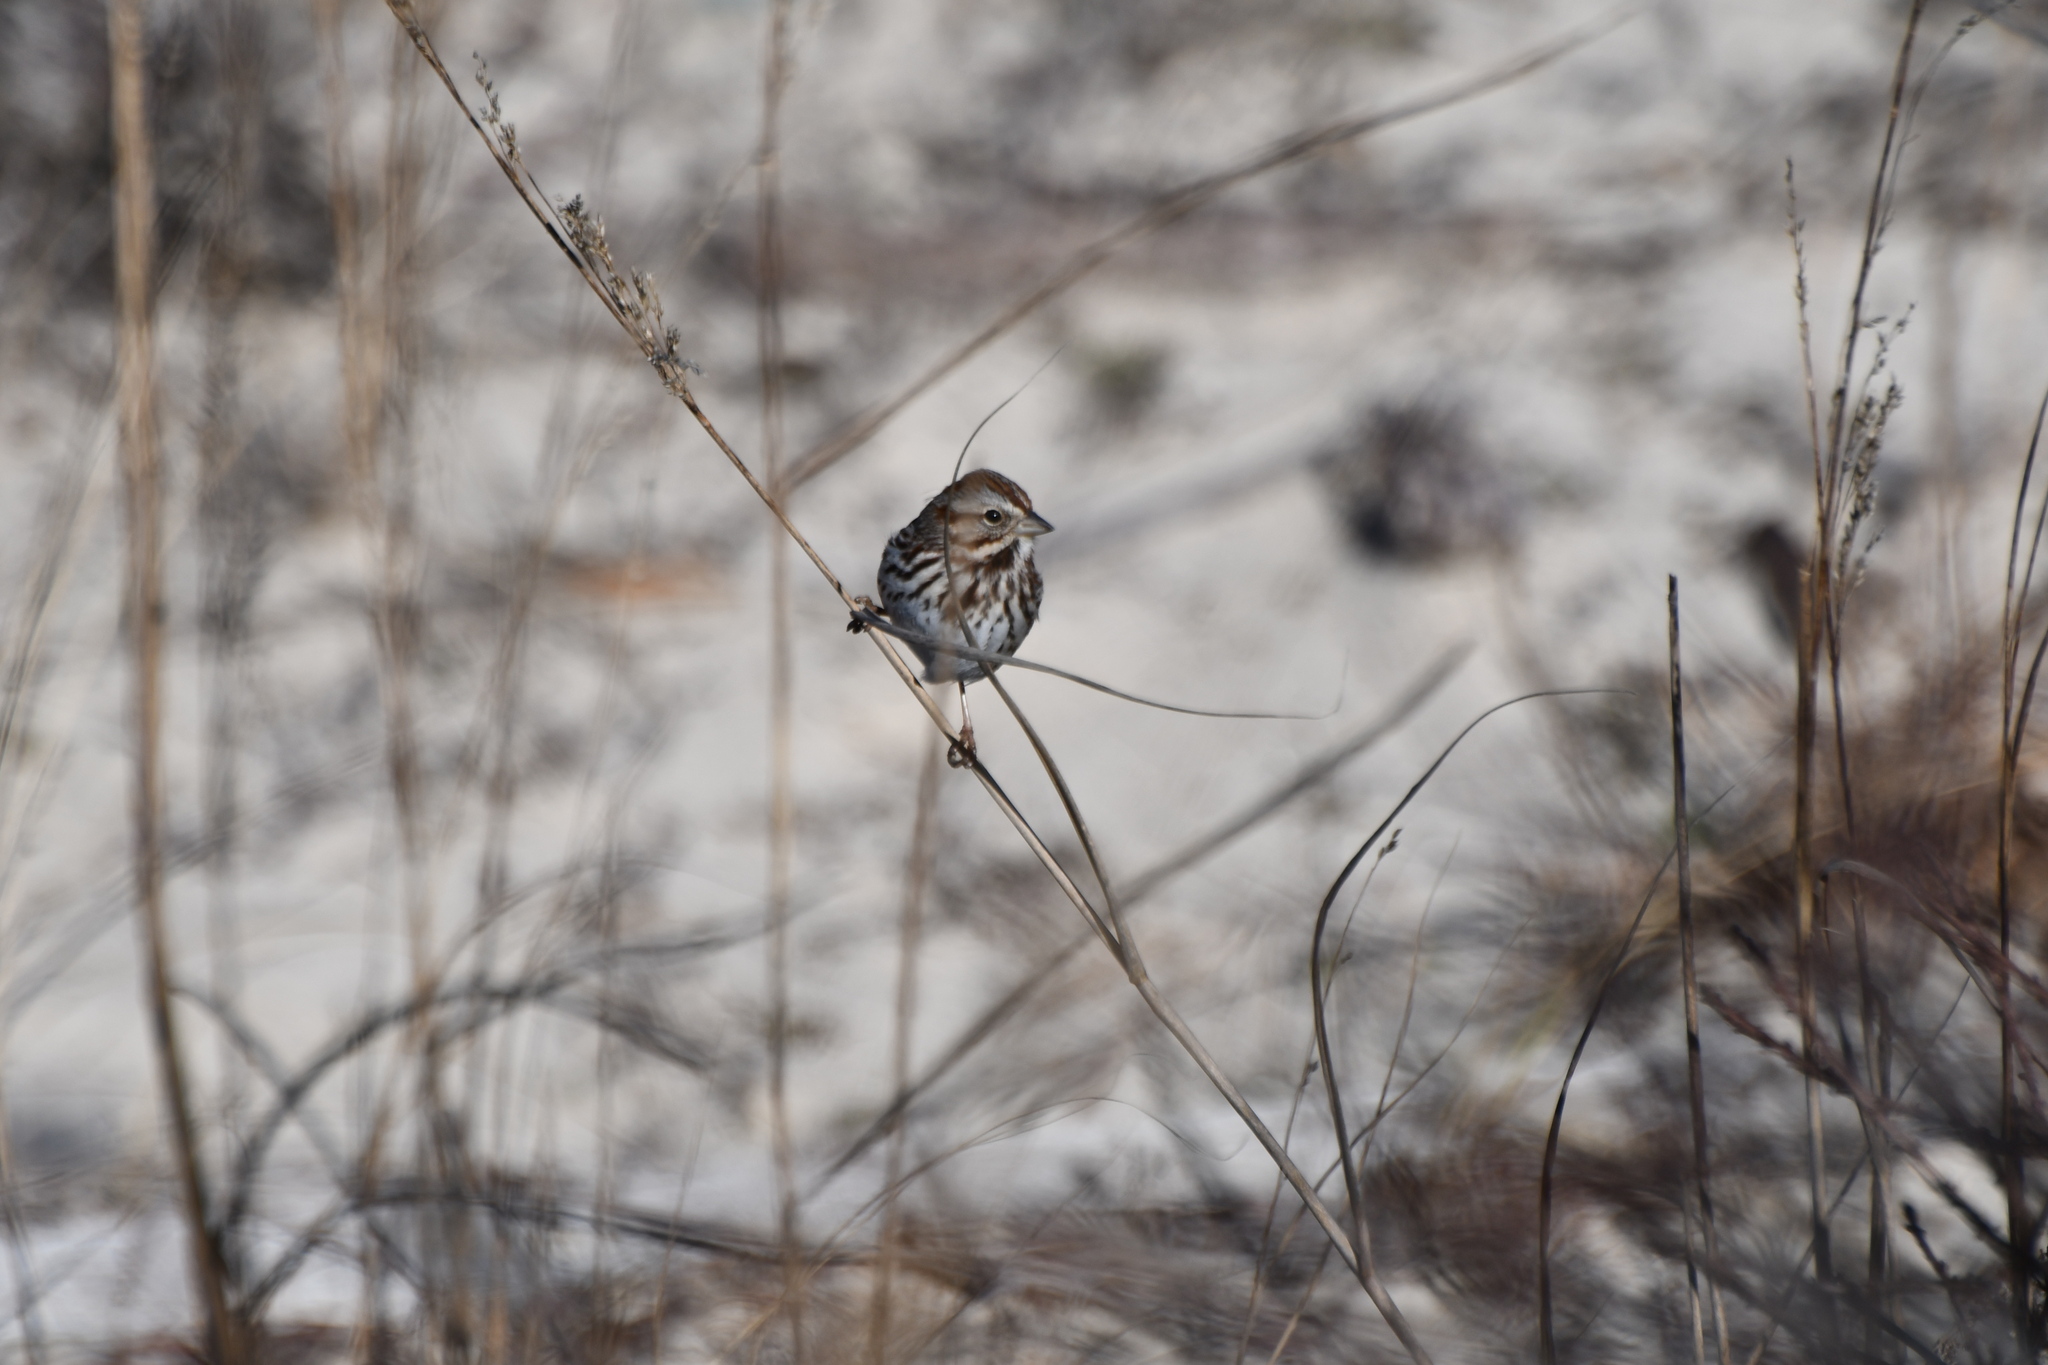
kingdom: Animalia
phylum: Chordata
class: Aves
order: Passeriformes
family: Passerellidae
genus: Melospiza
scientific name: Melospiza melodia
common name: Song sparrow
